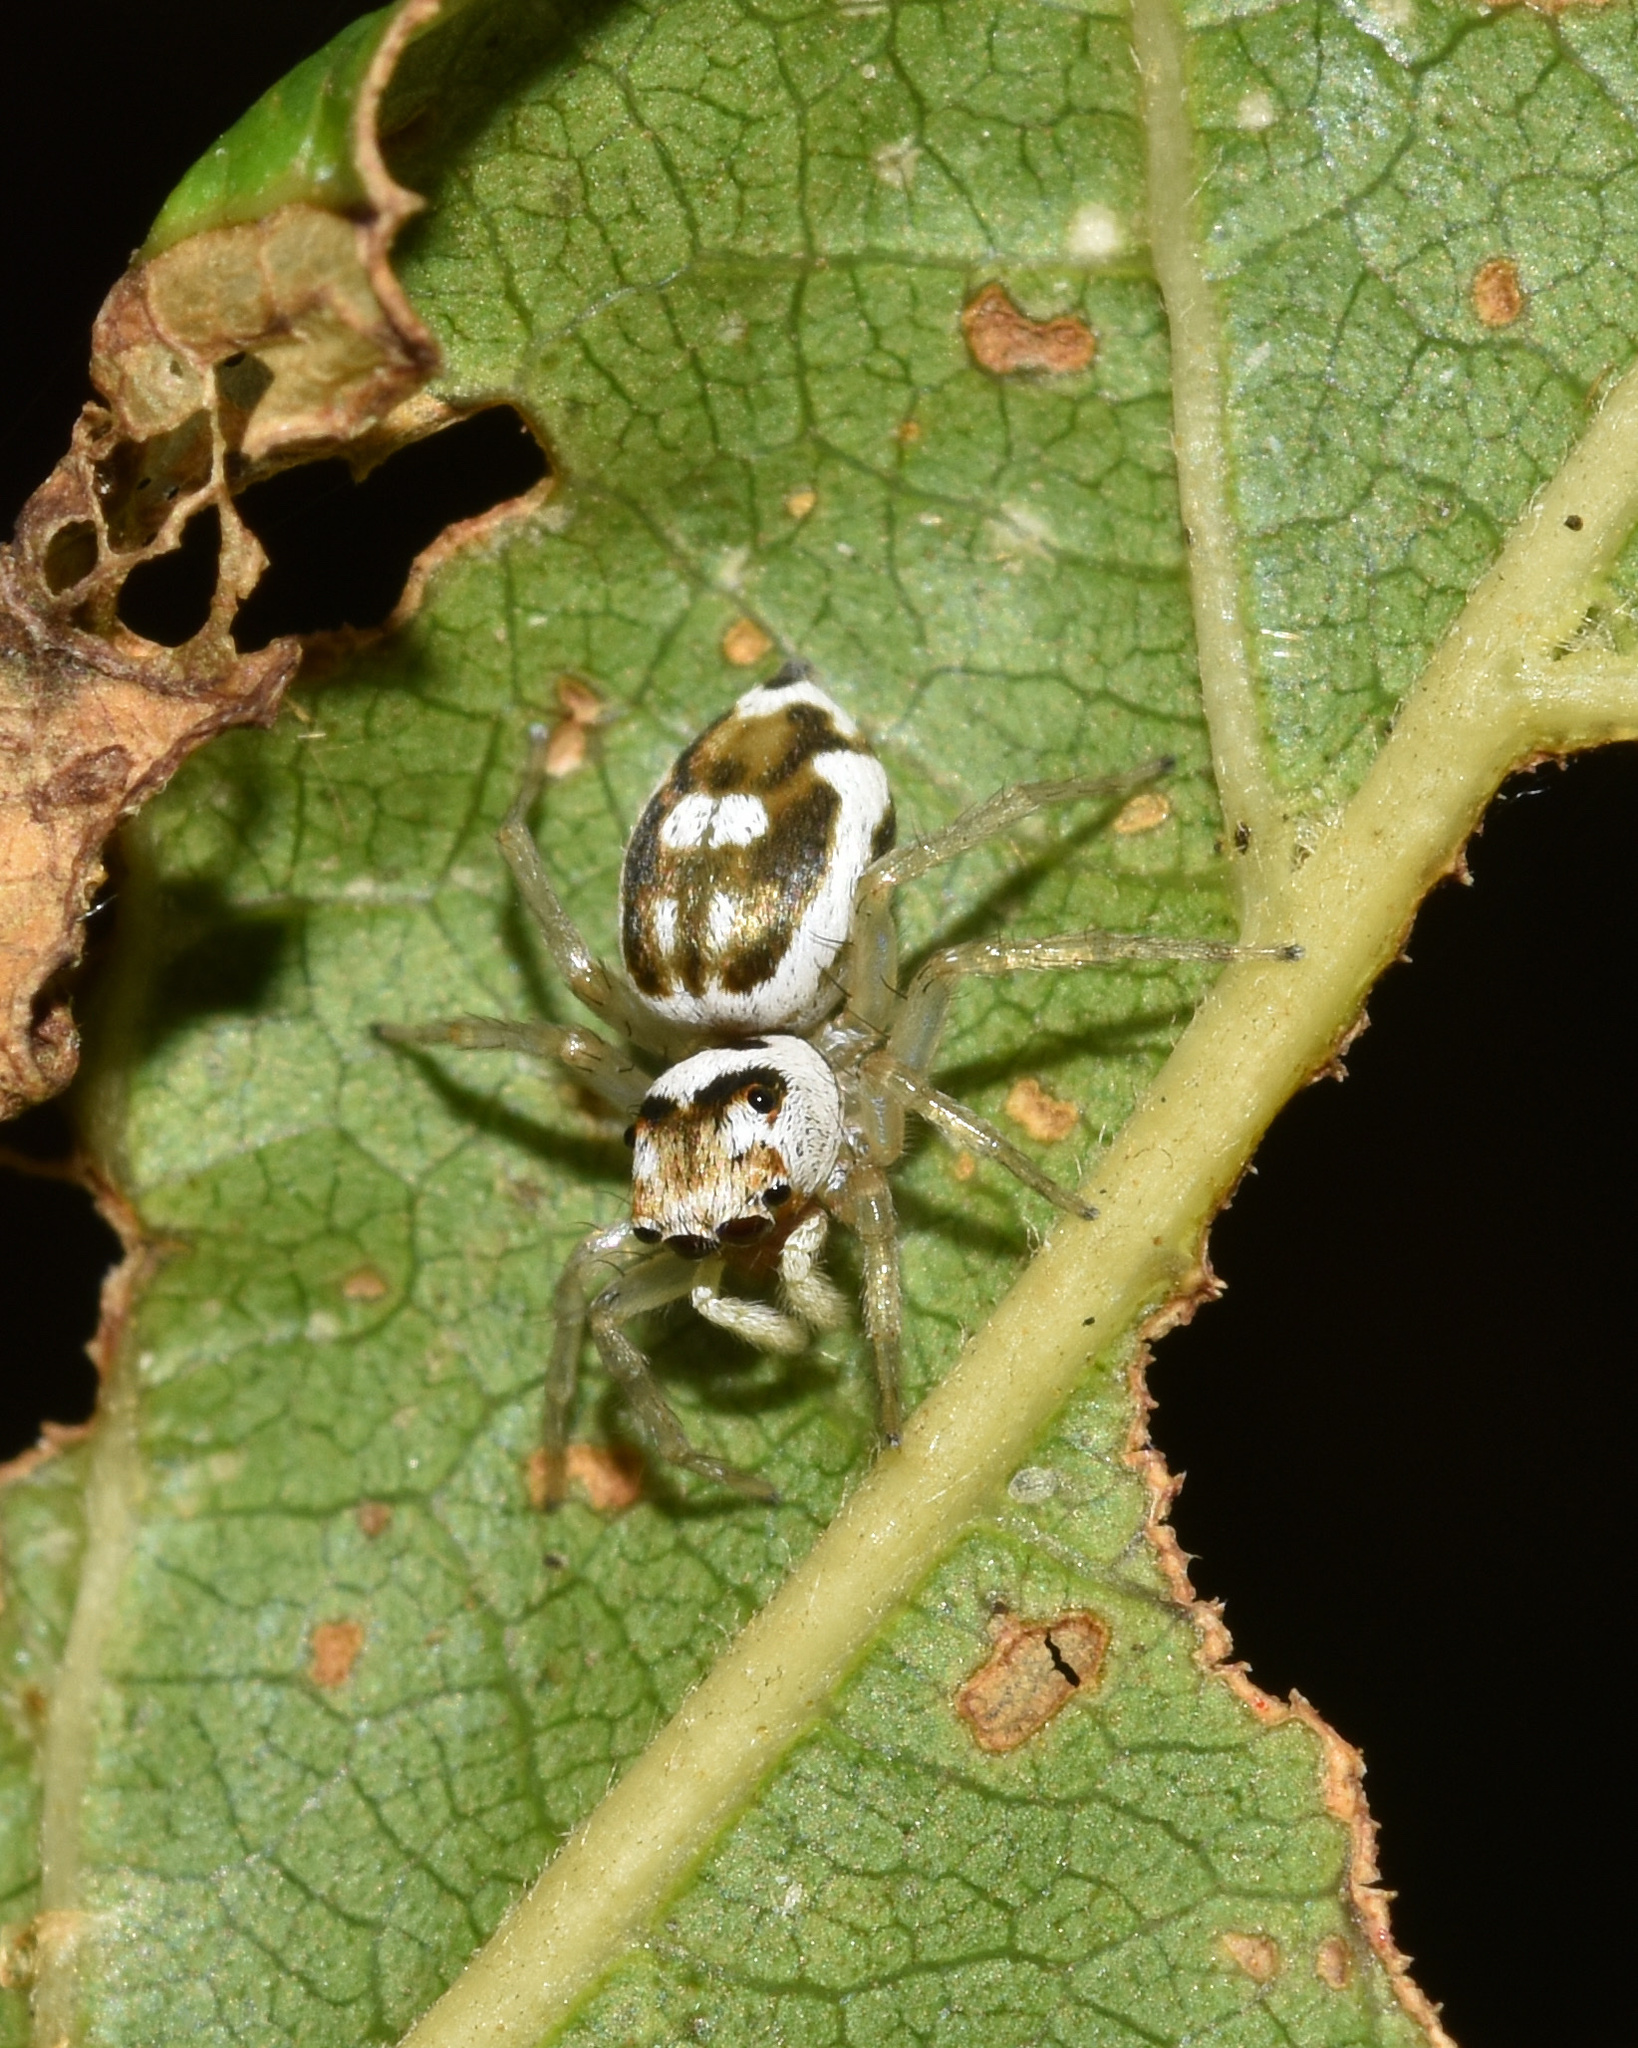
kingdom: Animalia
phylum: Arthropoda
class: Arachnida
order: Araneae
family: Salticidae
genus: Phintella
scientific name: Phintella aequipes
